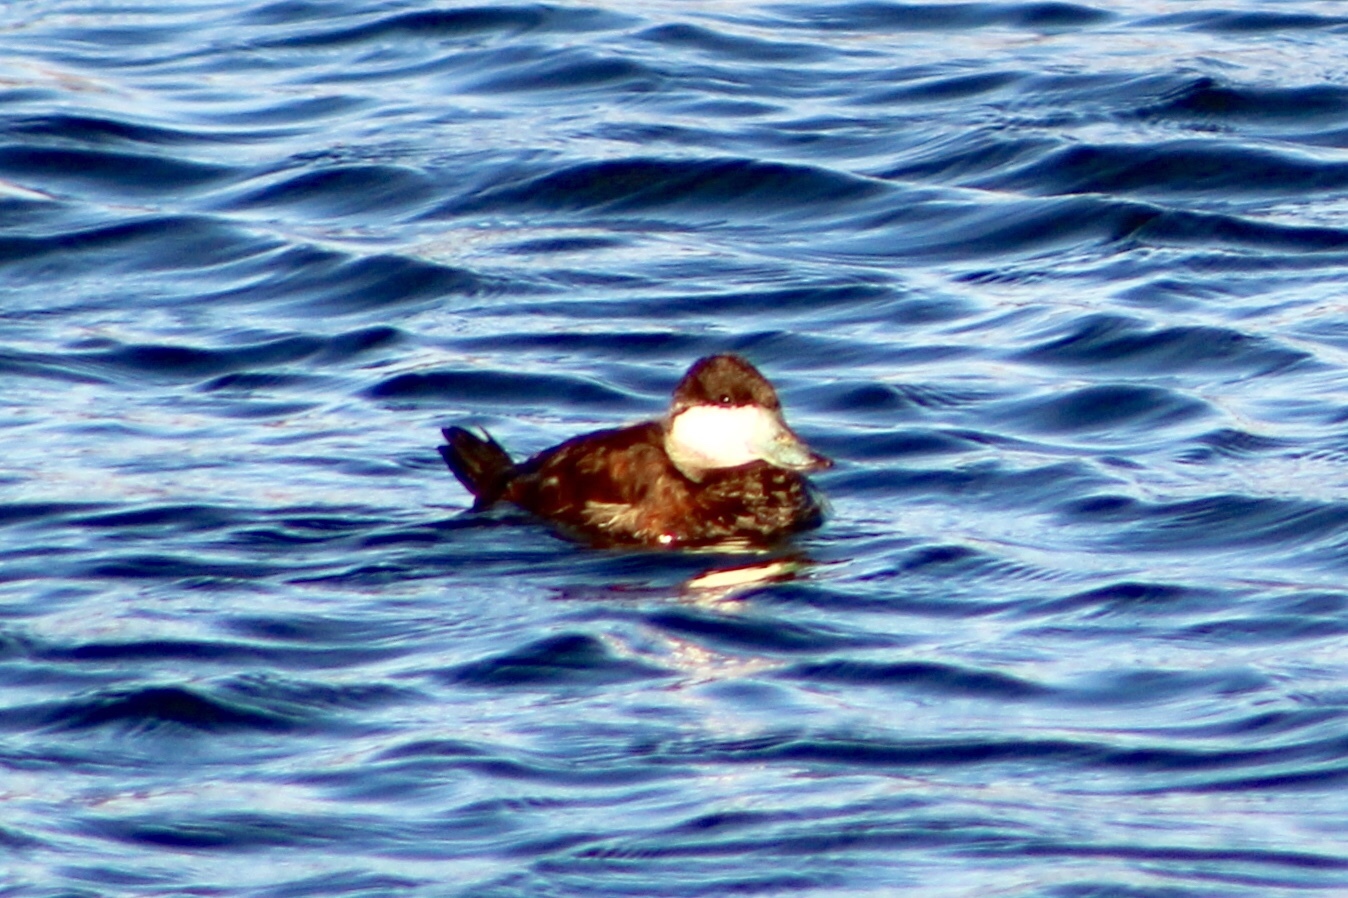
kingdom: Animalia
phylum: Chordata
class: Aves
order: Anseriformes
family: Anatidae
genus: Oxyura
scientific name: Oxyura jamaicensis
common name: Ruddy duck
